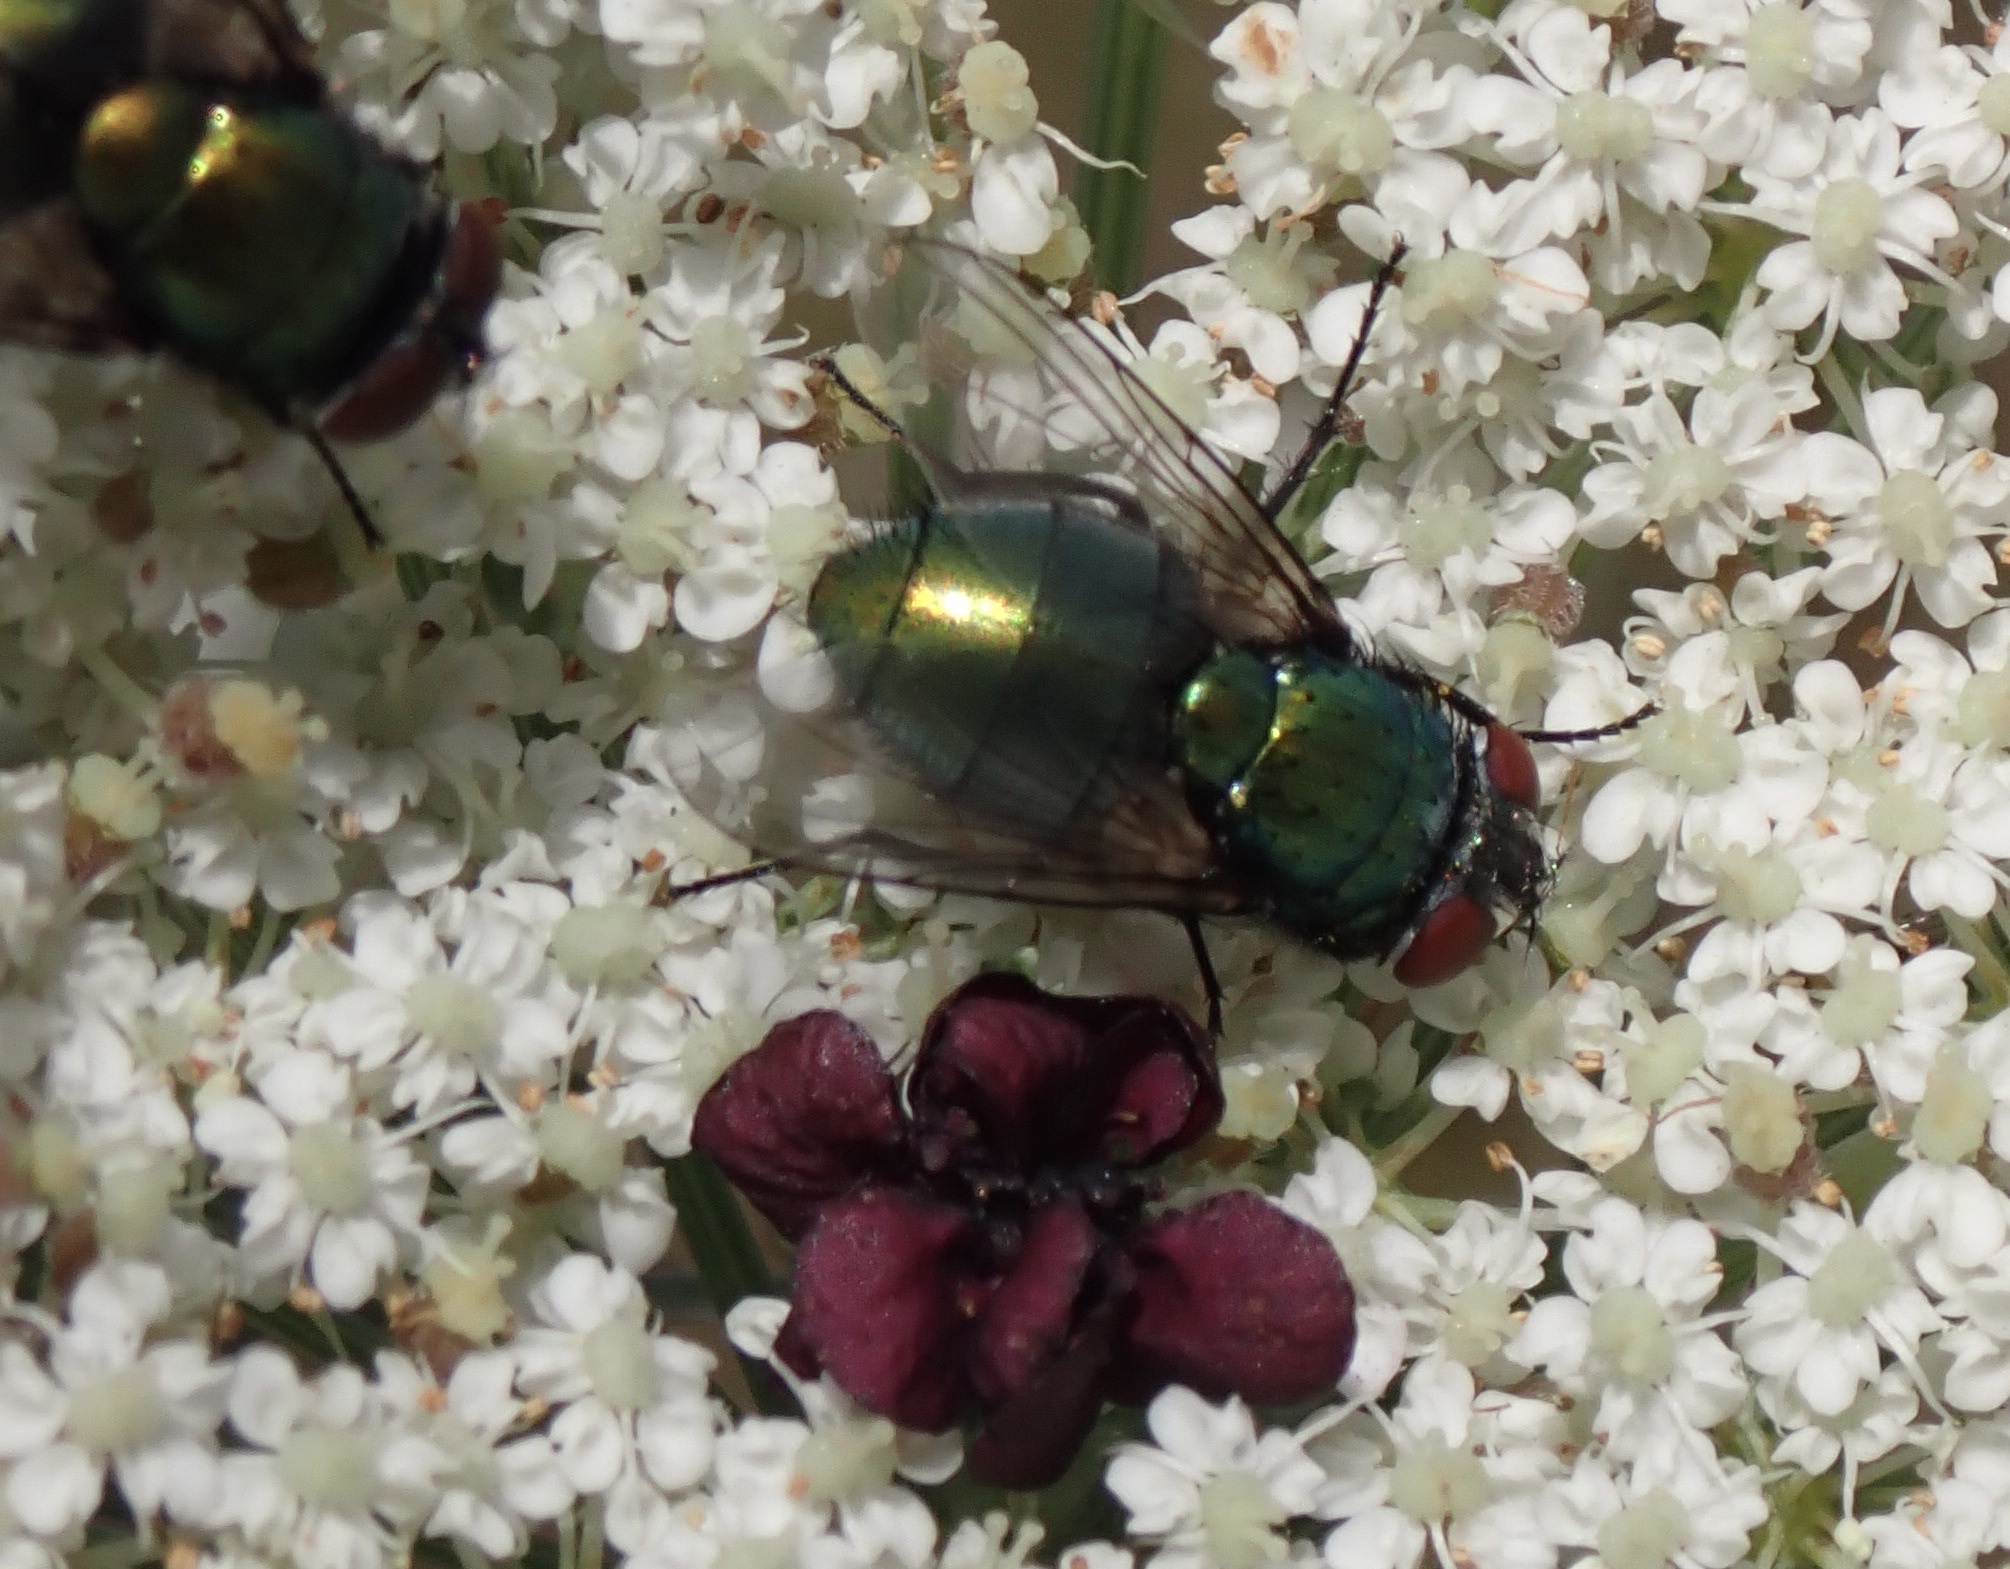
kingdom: Animalia
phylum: Arthropoda
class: Insecta
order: Diptera
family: Calliphoridae
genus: Lucilia
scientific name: Lucilia
